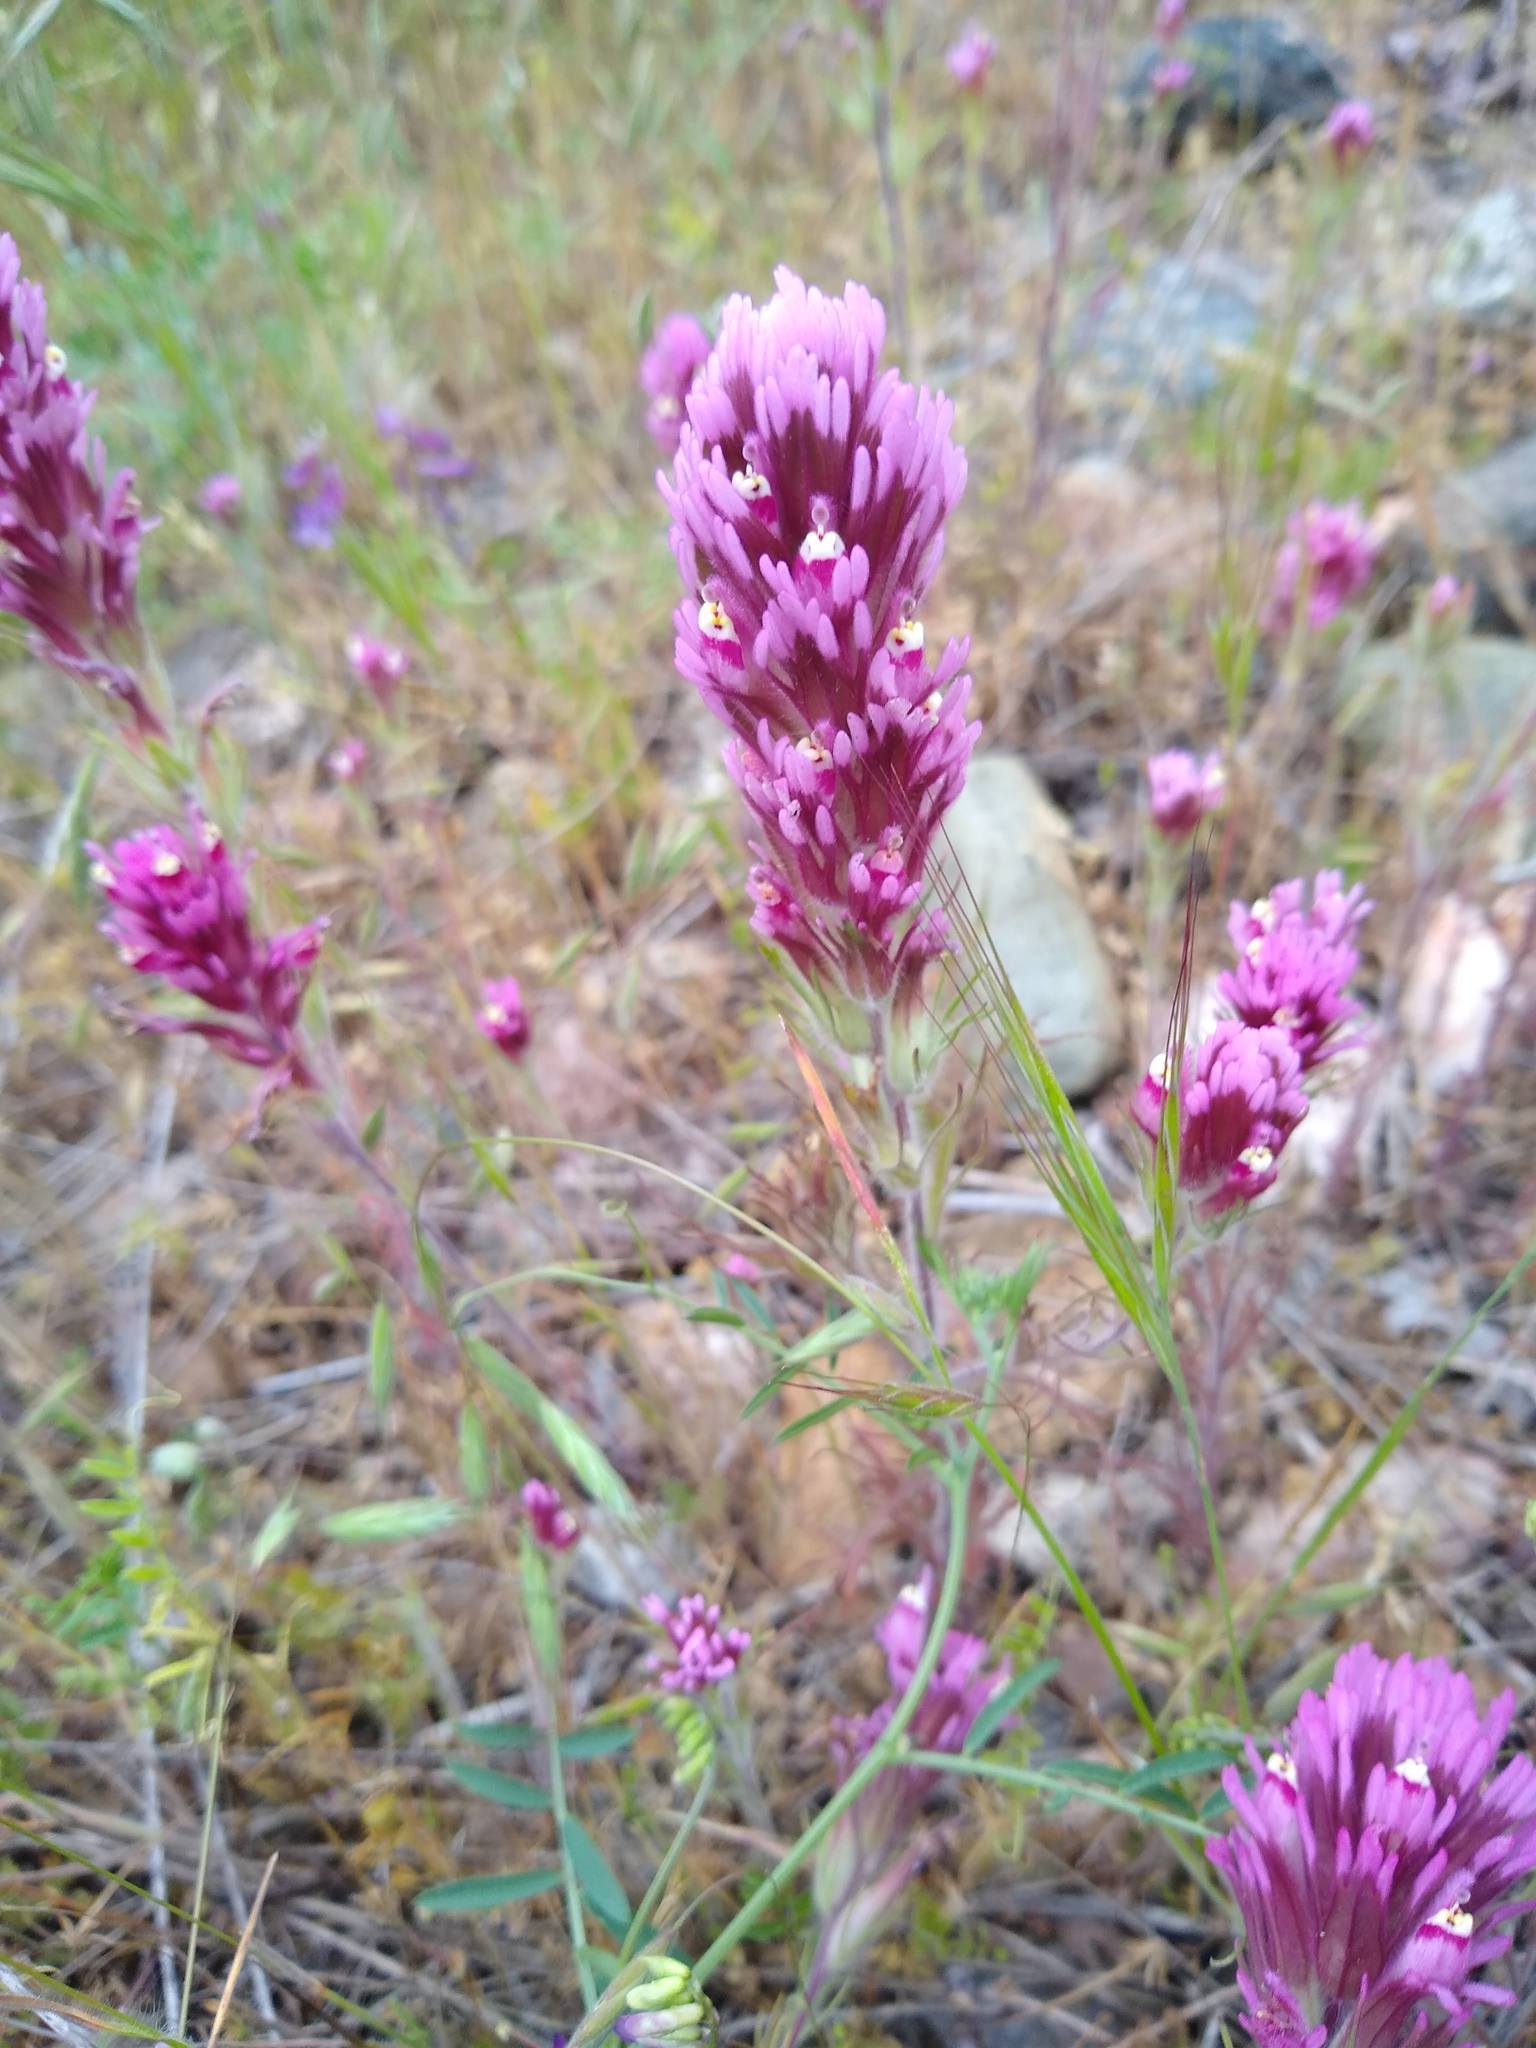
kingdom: Plantae
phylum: Tracheophyta
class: Magnoliopsida
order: Lamiales
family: Orobanchaceae
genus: Castilleja
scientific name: Castilleja exserta
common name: Purple owl-clover
